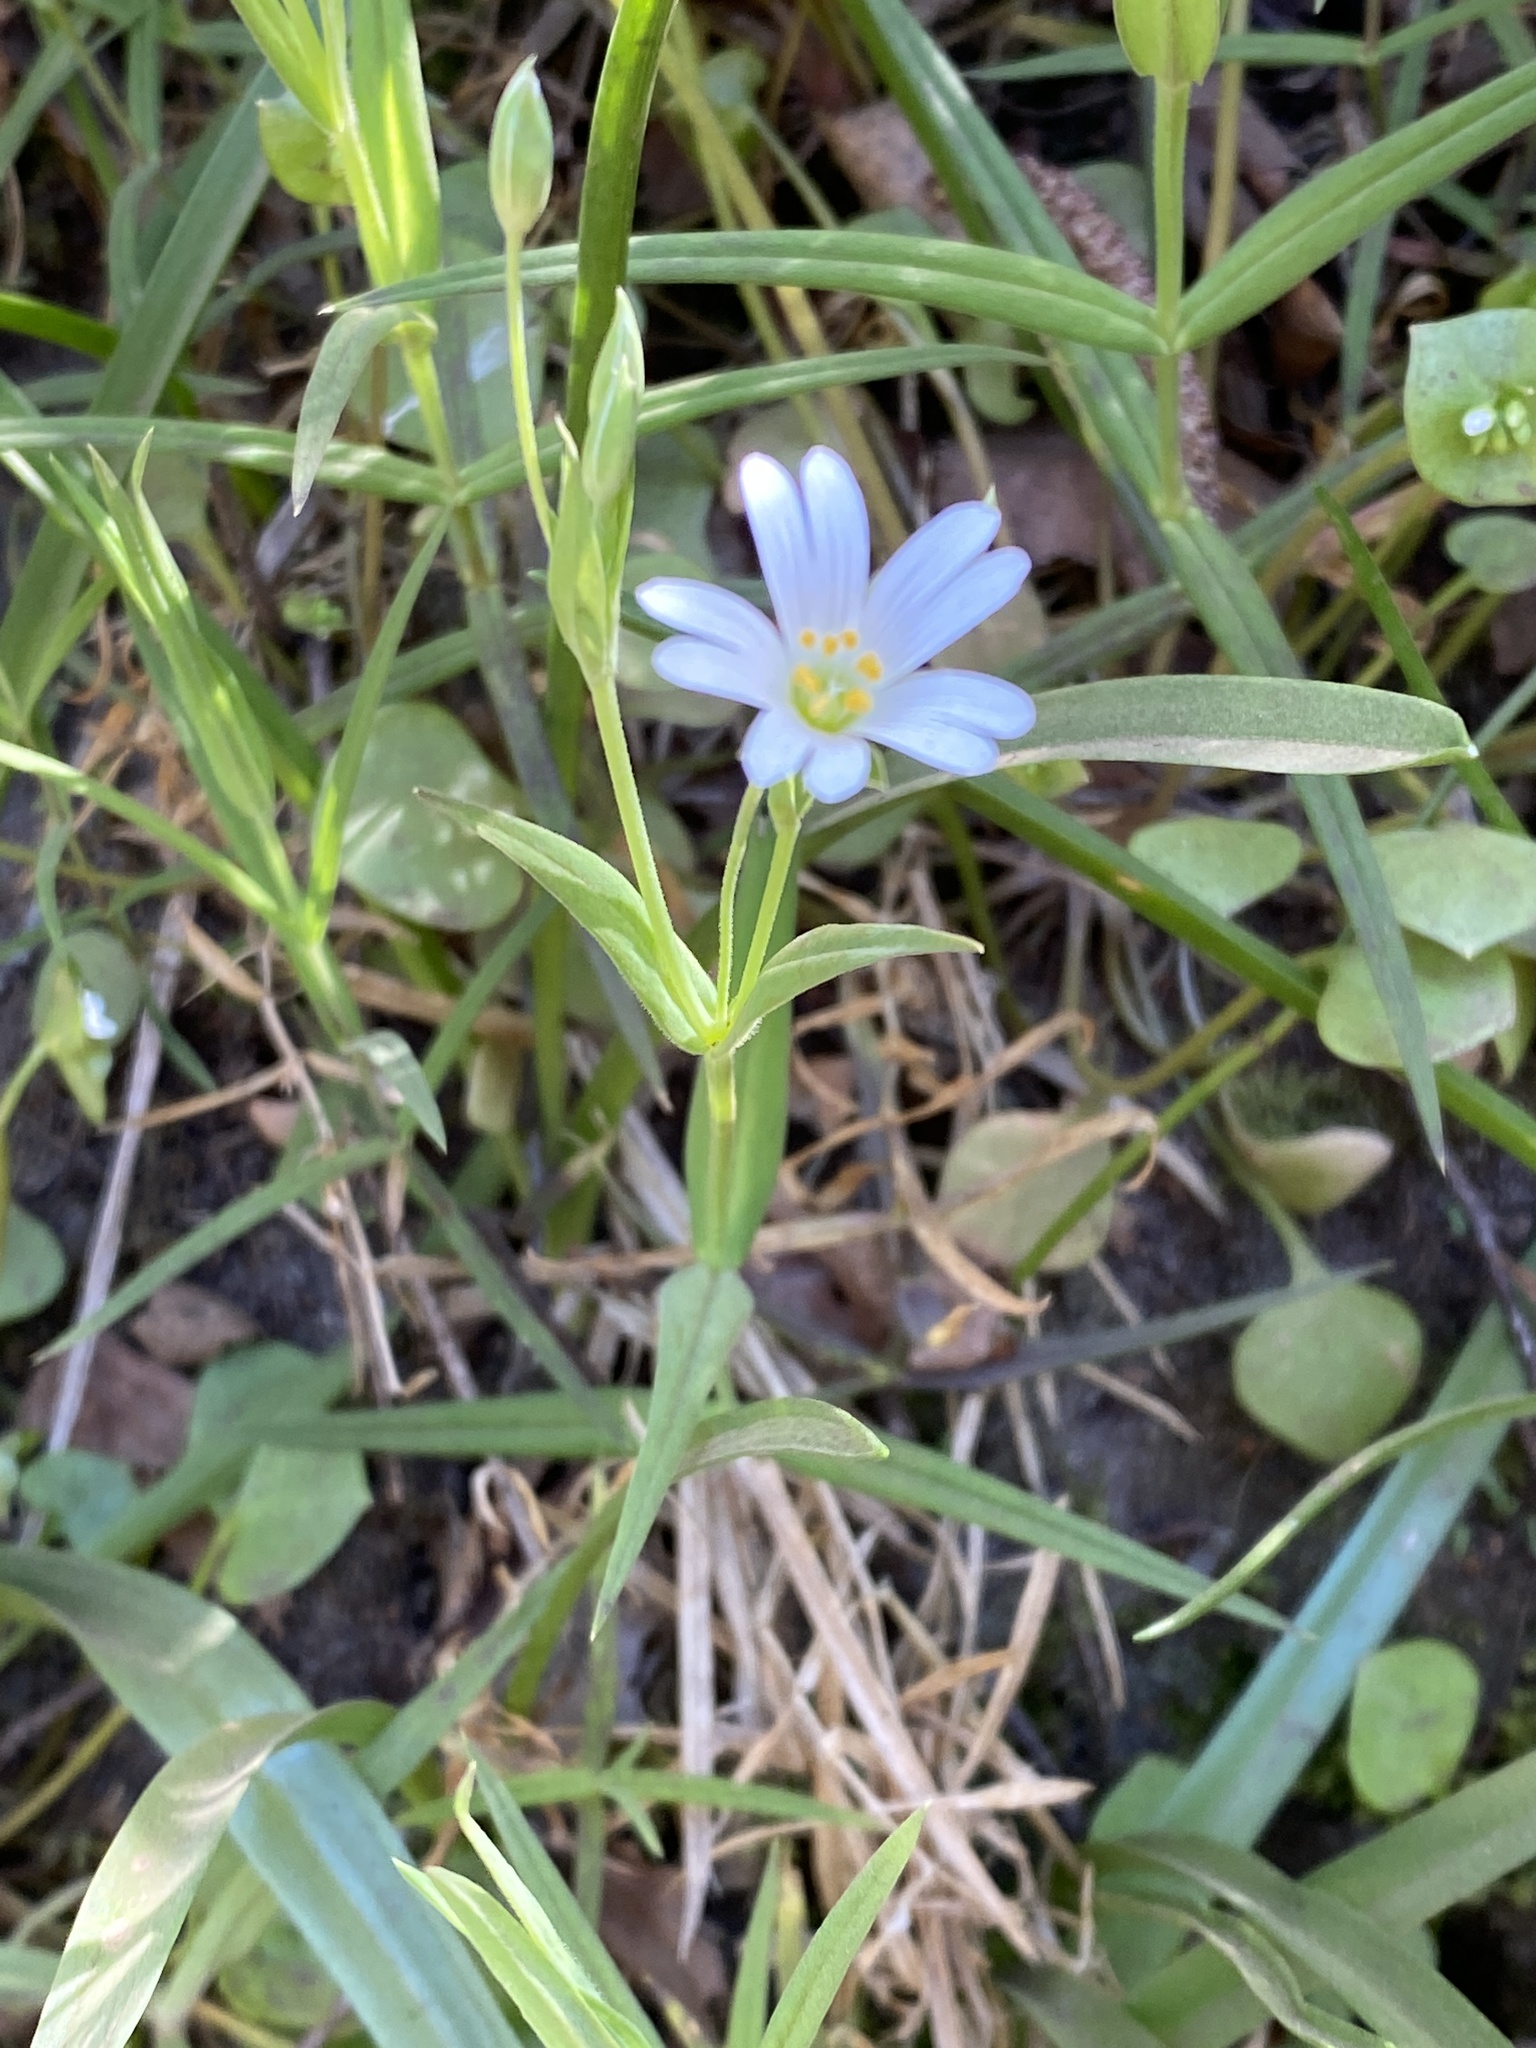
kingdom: Plantae
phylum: Tracheophyta
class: Magnoliopsida
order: Caryophyllales
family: Caryophyllaceae
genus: Rabelera
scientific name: Rabelera holostea
